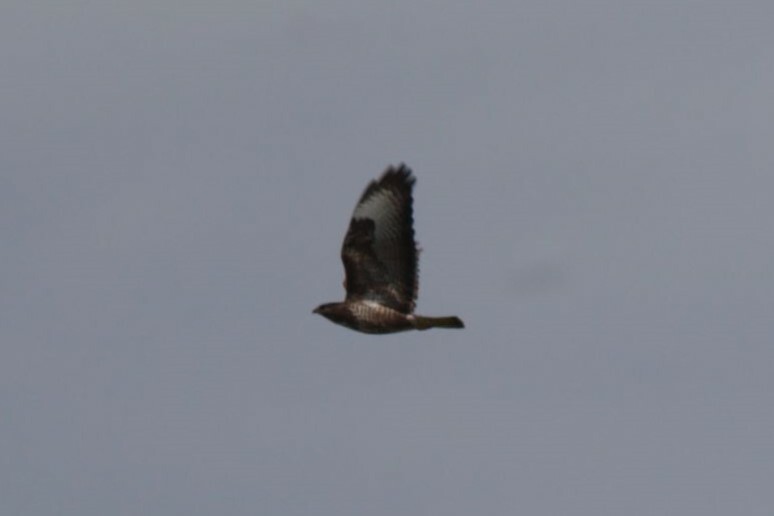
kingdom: Animalia
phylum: Chordata
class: Aves
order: Accipitriformes
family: Accipitridae
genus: Buteo
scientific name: Buteo buteo
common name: Common buzzard
